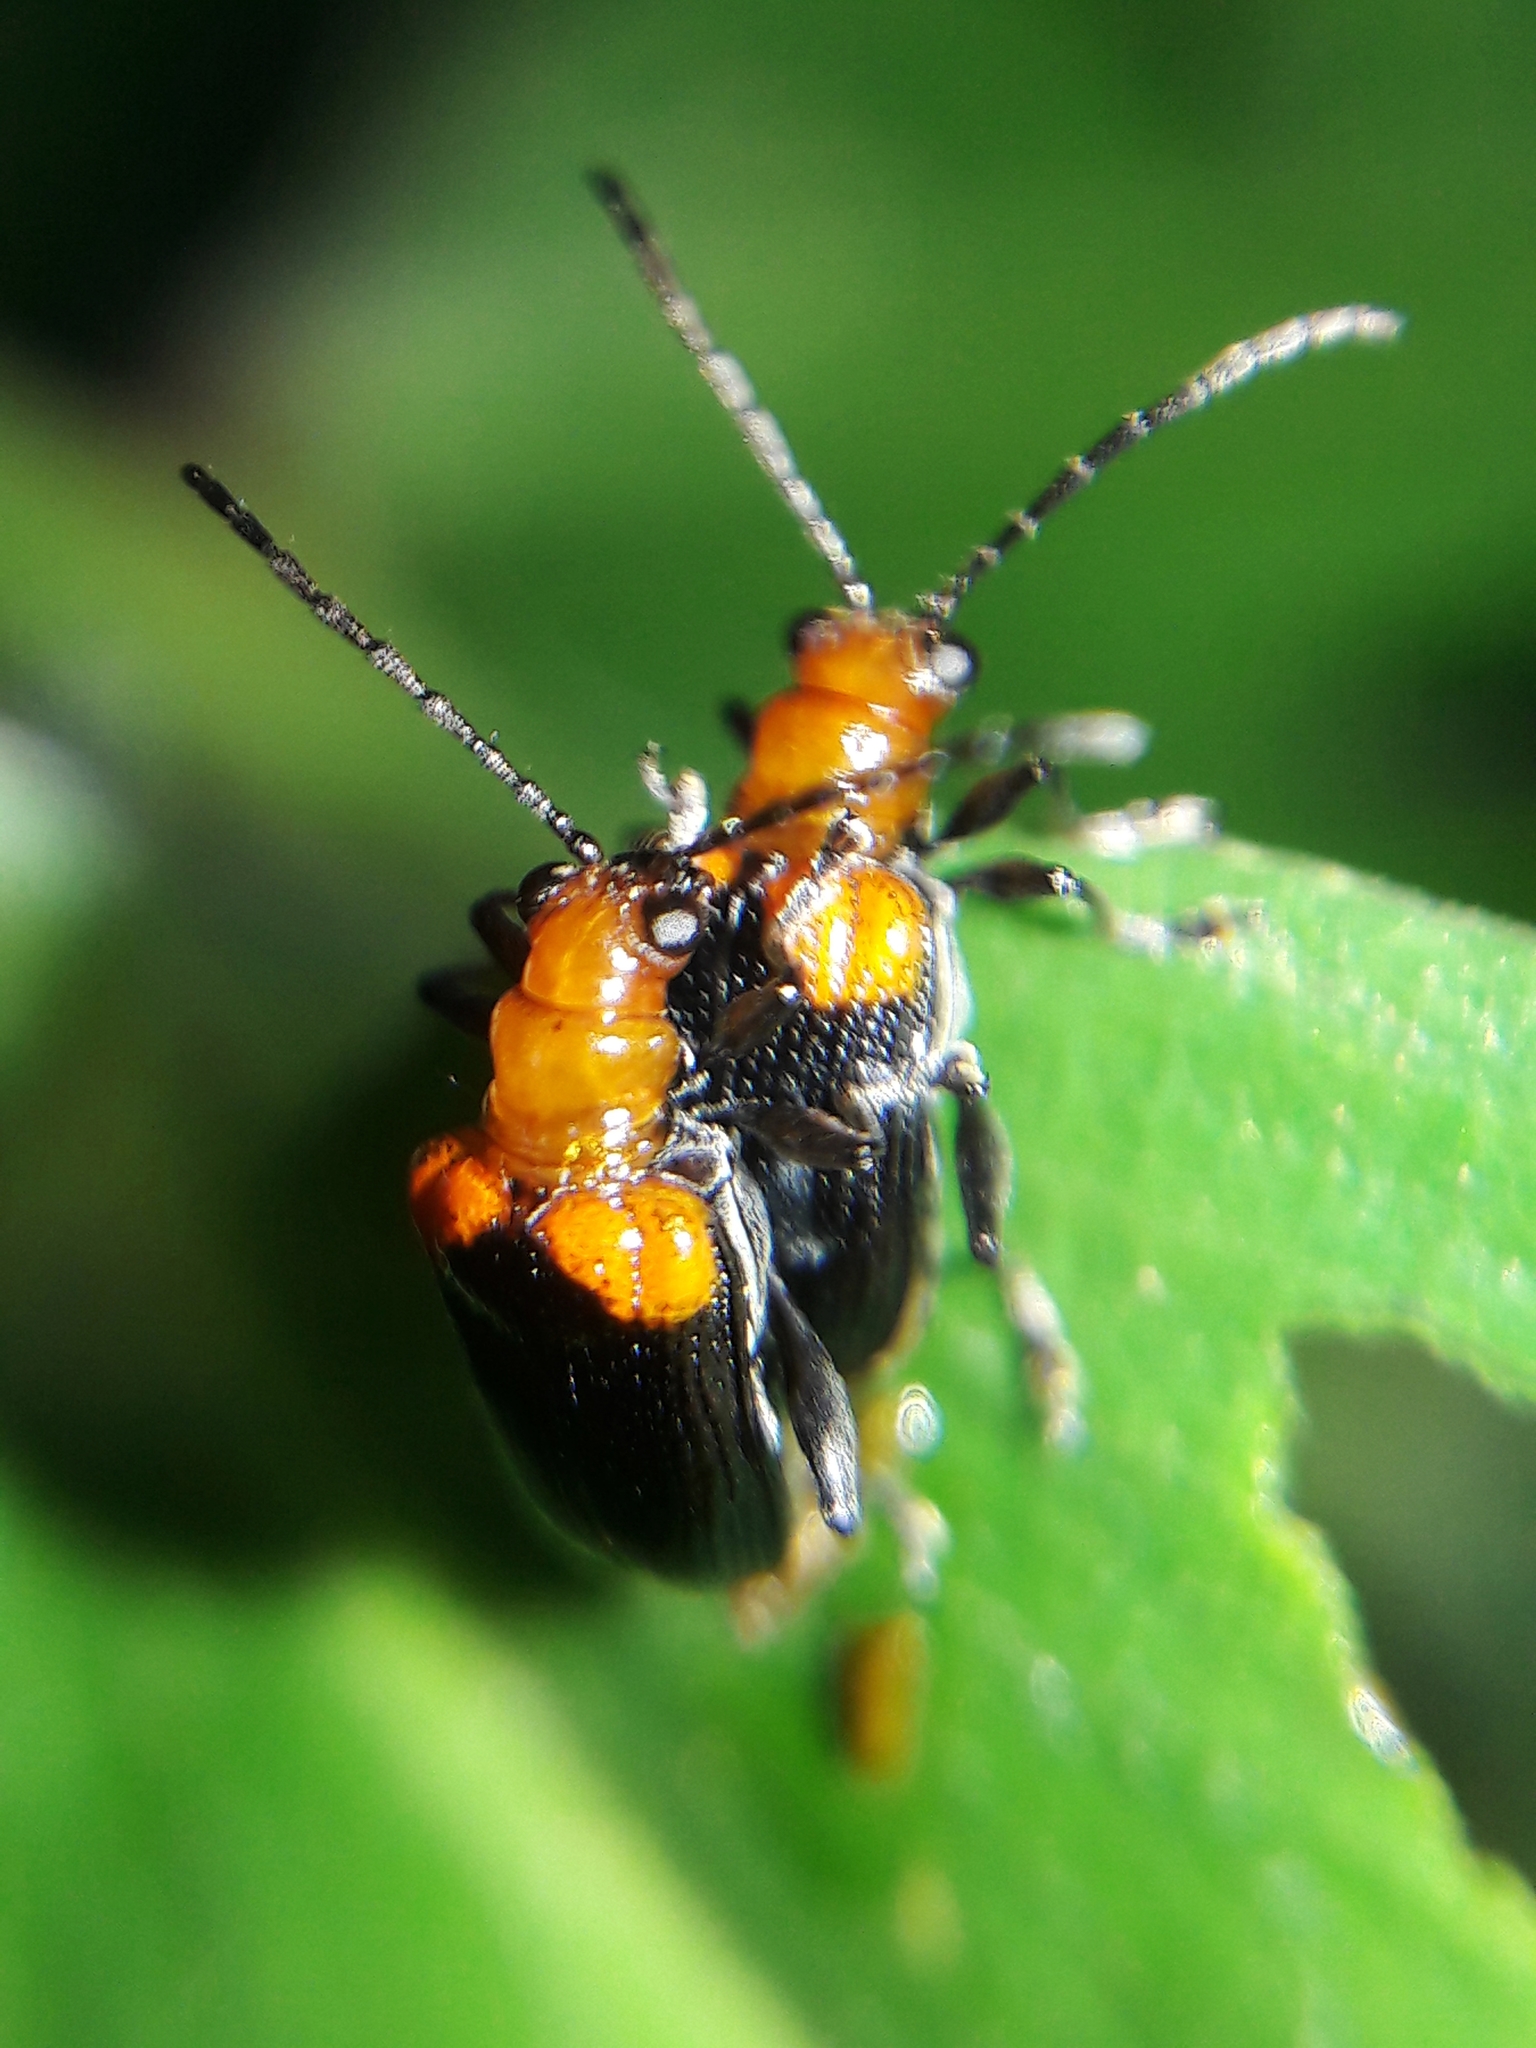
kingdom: Animalia
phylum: Arthropoda
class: Insecta
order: Coleoptera
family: Chrysomelidae
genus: Neolema
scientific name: Neolema
